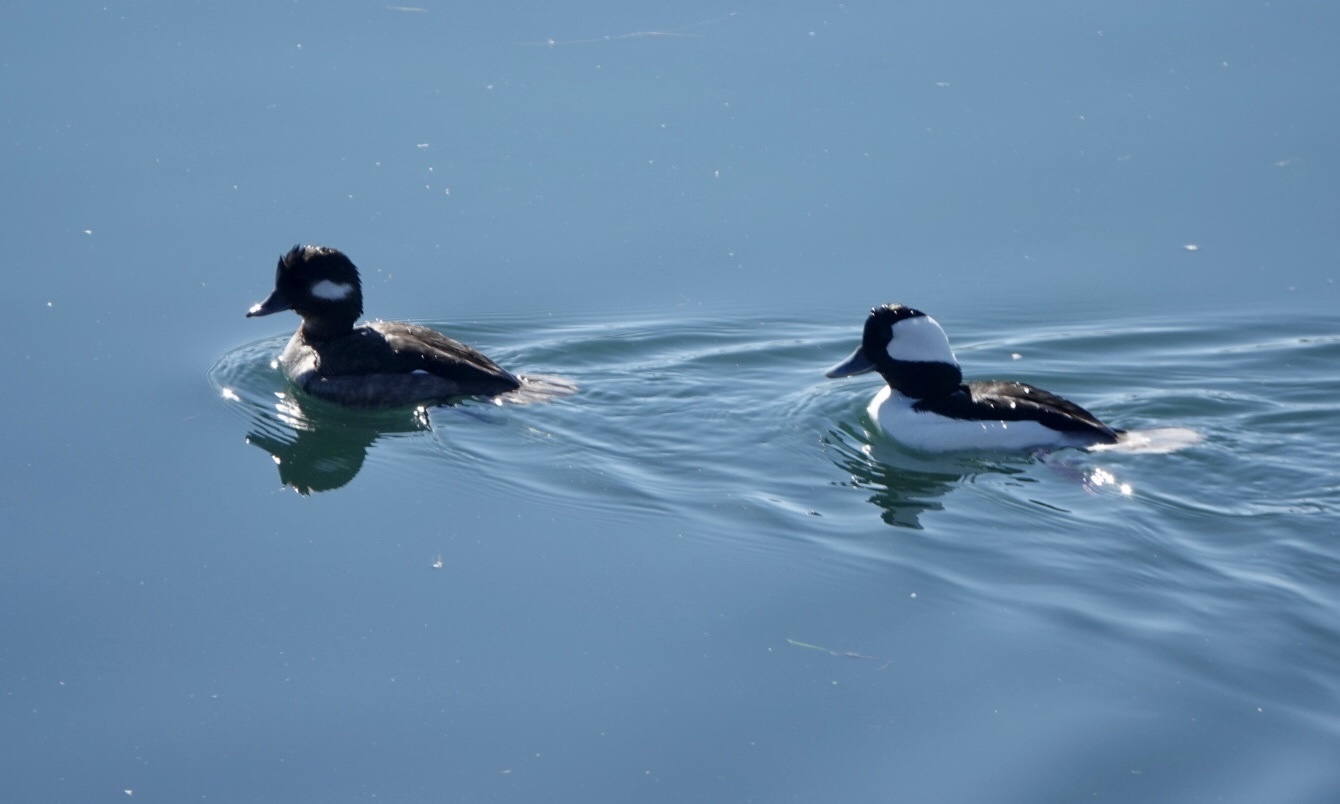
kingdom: Animalia
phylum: Chordata
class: Aves
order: Anseriformes
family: Anatidae
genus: Bucephala
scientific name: Bucephala albeola
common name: Bufflehead
